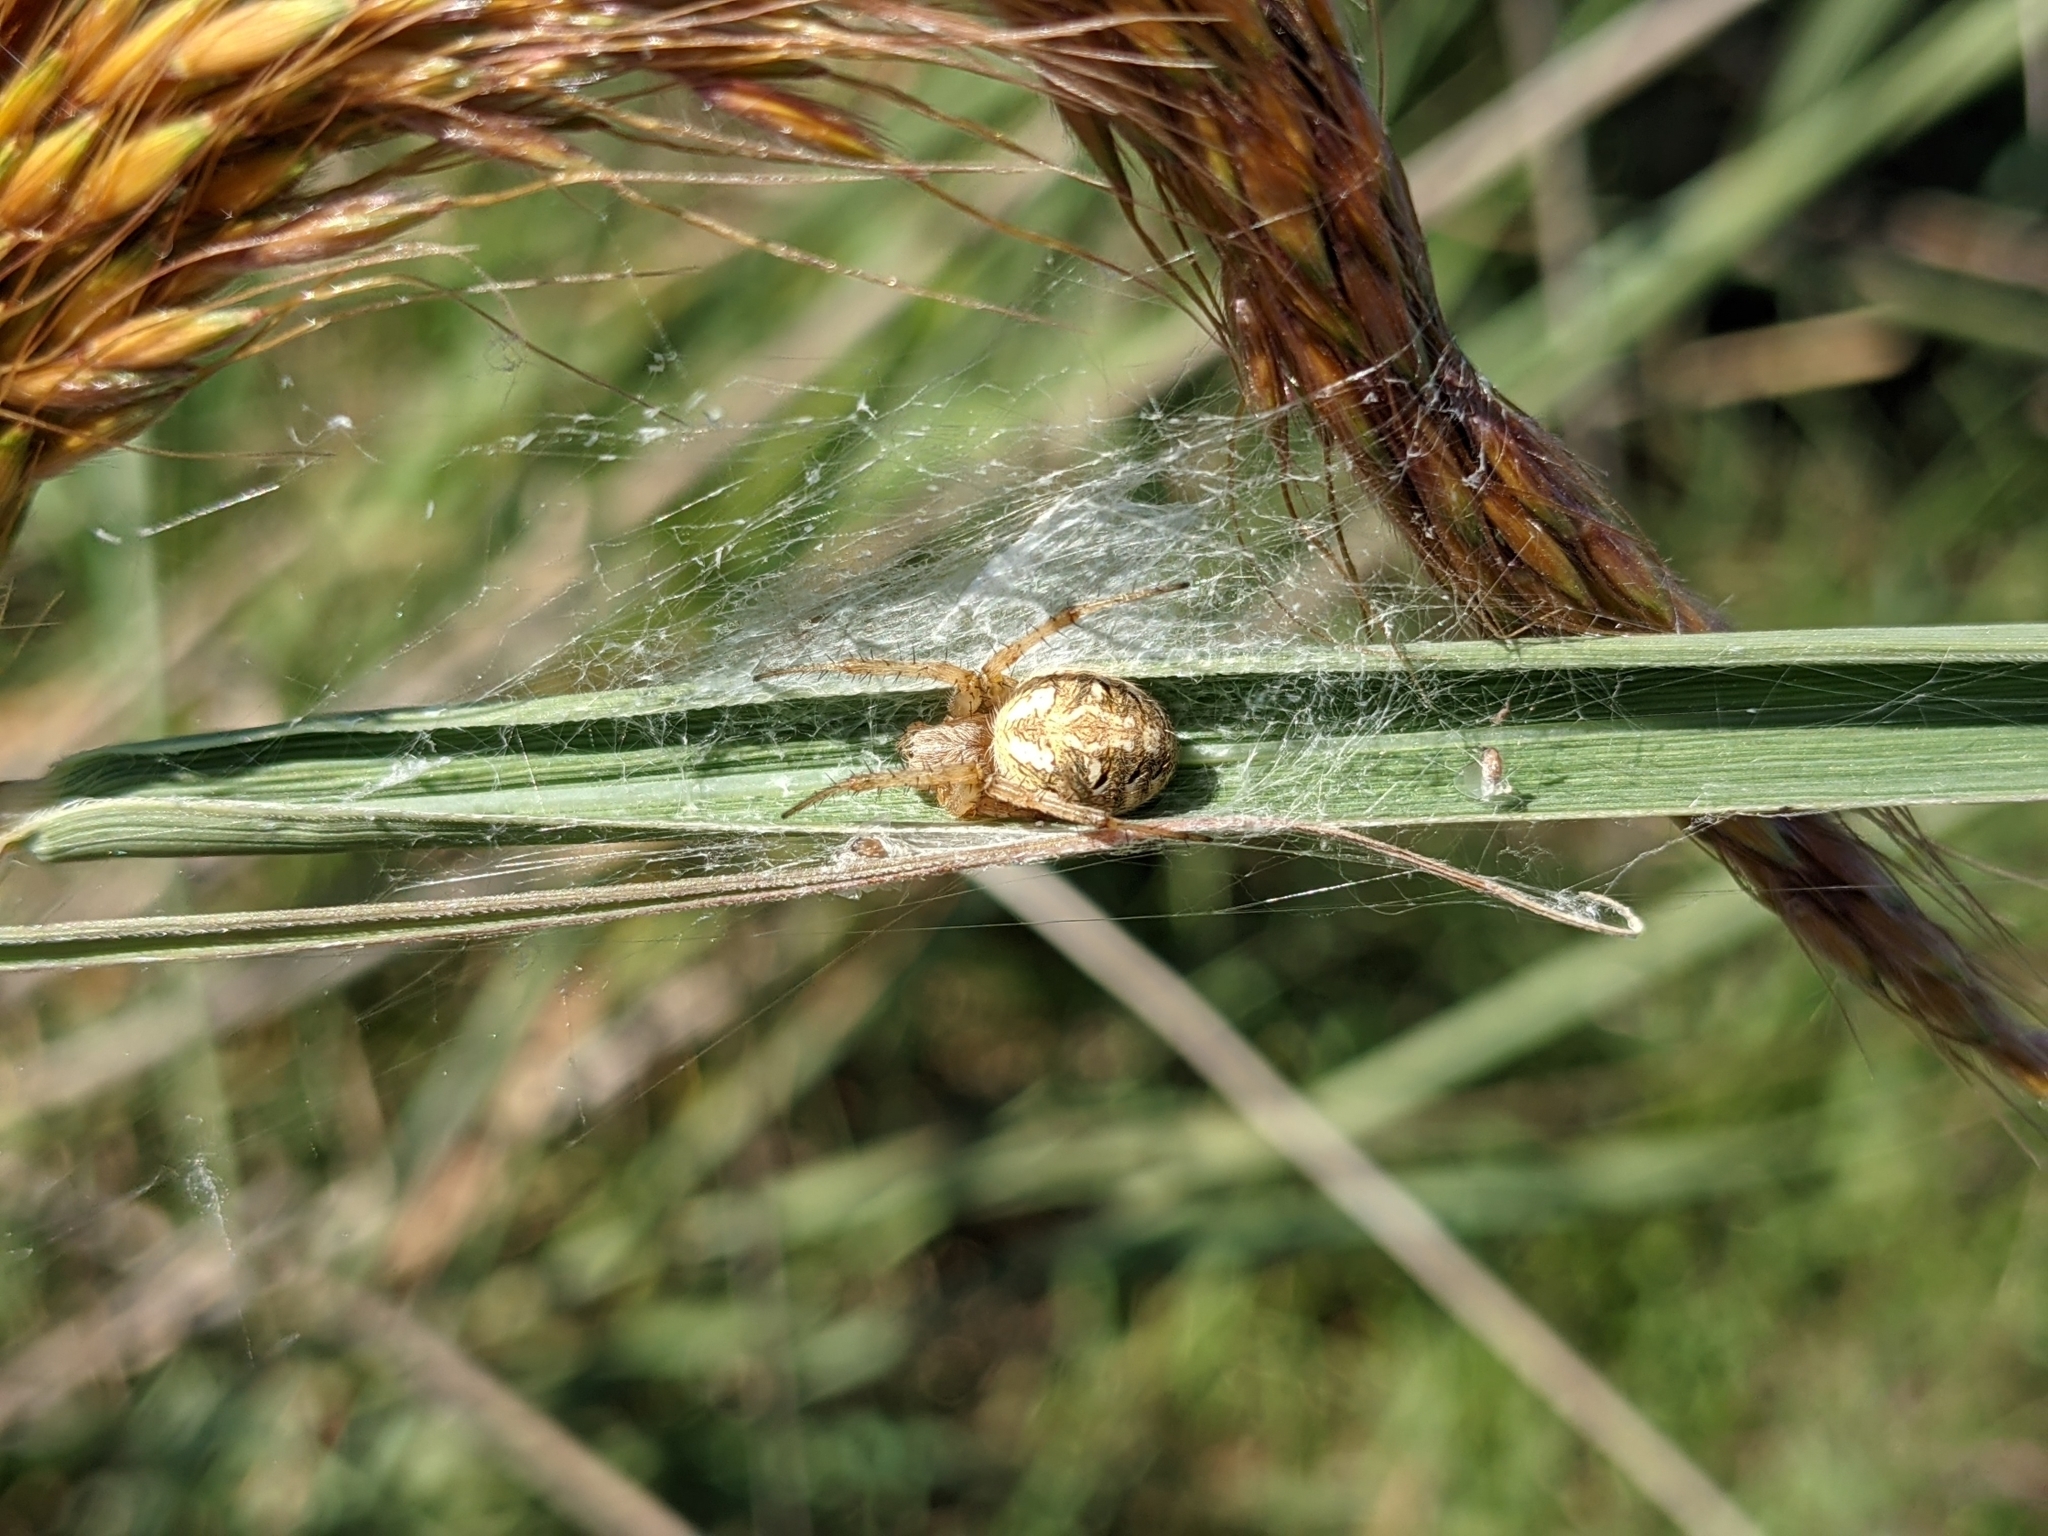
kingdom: Animalia
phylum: Arthropoda
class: Arachnida
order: Araneae
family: Araneidae
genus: Neoscona
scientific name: Neoscona arabesca
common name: Orb weavers
